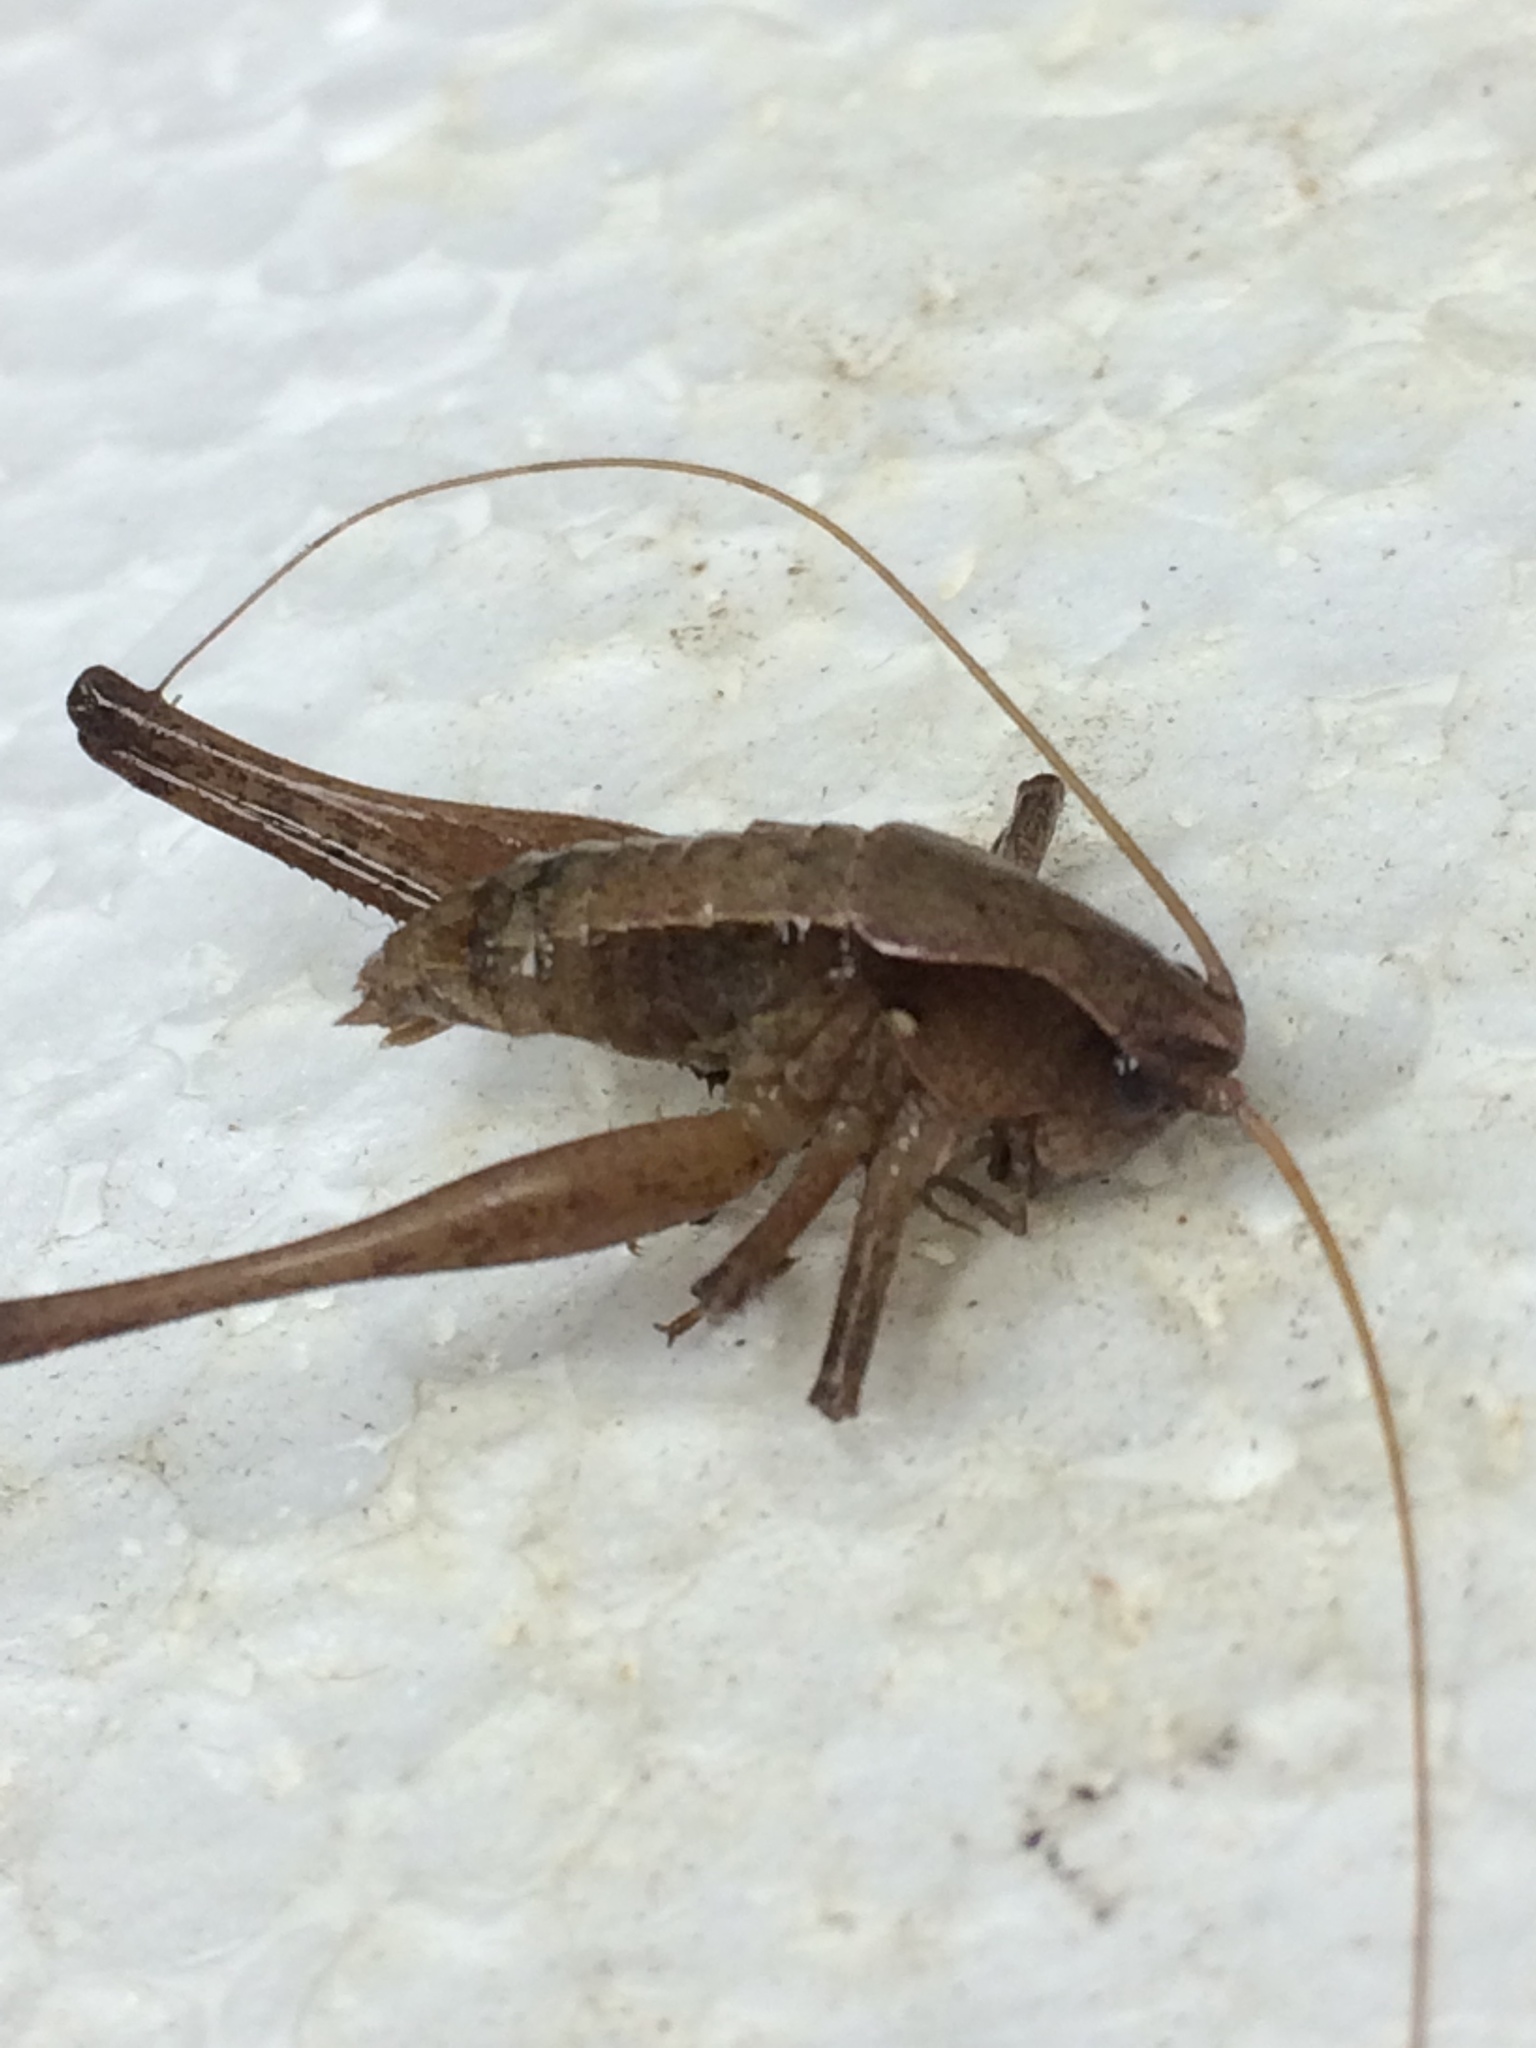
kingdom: Animalia
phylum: Arthropoda
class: Insecta
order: Orthoptera
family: Tettigoniidae
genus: Atlanticus
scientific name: Atlanticus
